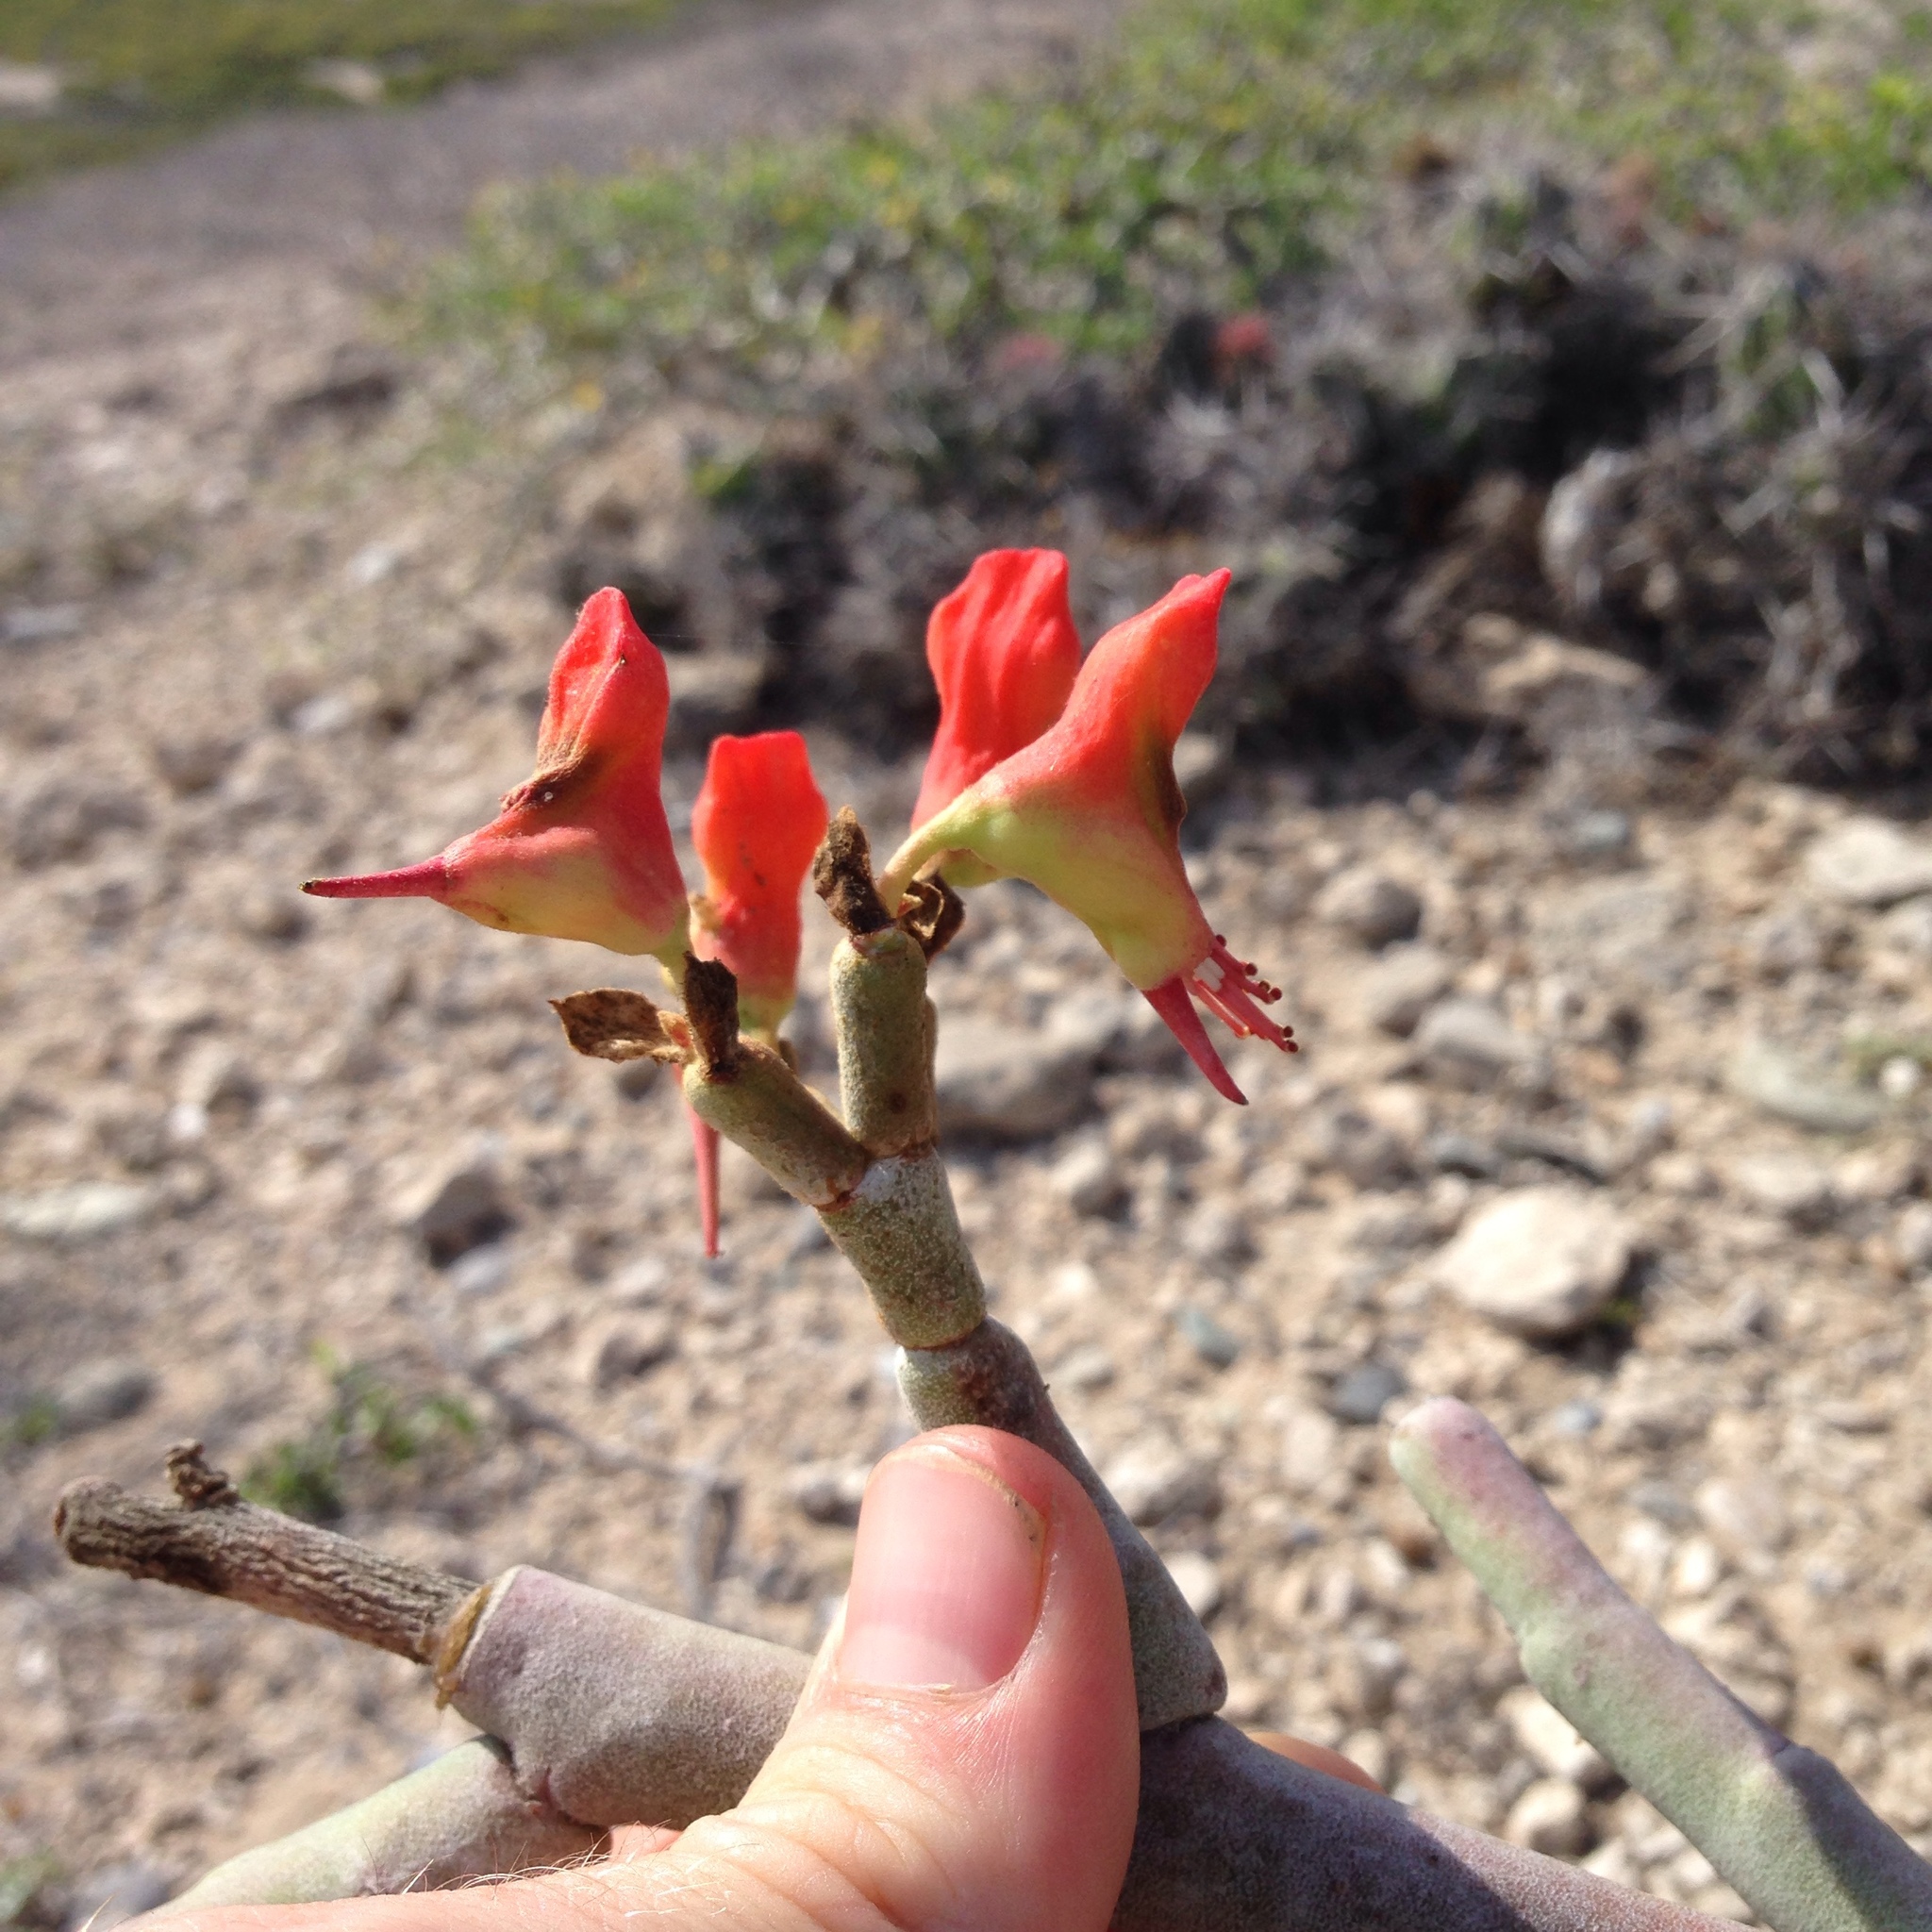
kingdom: Plantae
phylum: Tracheophyta
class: Magnoliopsida
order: Malpighiales
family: Euphorbiaceae
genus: Euphorbia
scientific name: Euphorbia lomelii
